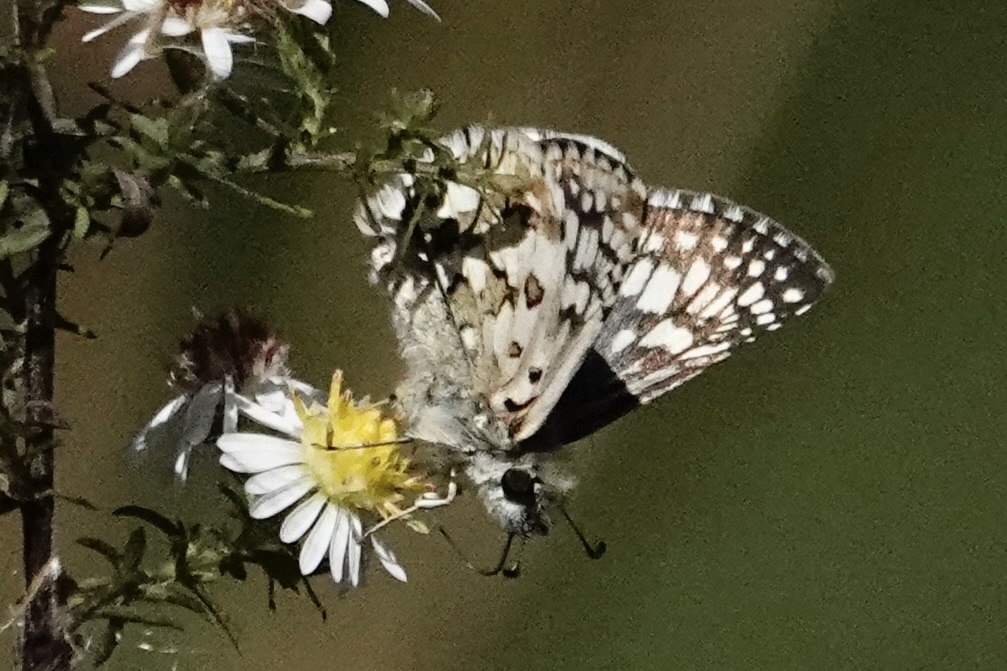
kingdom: Animalia
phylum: Arthropoda
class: Insecta
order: Lepidoptera
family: Hesperiidae
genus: Burnsius
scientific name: Burnsius communis
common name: Common checkered-skipper
